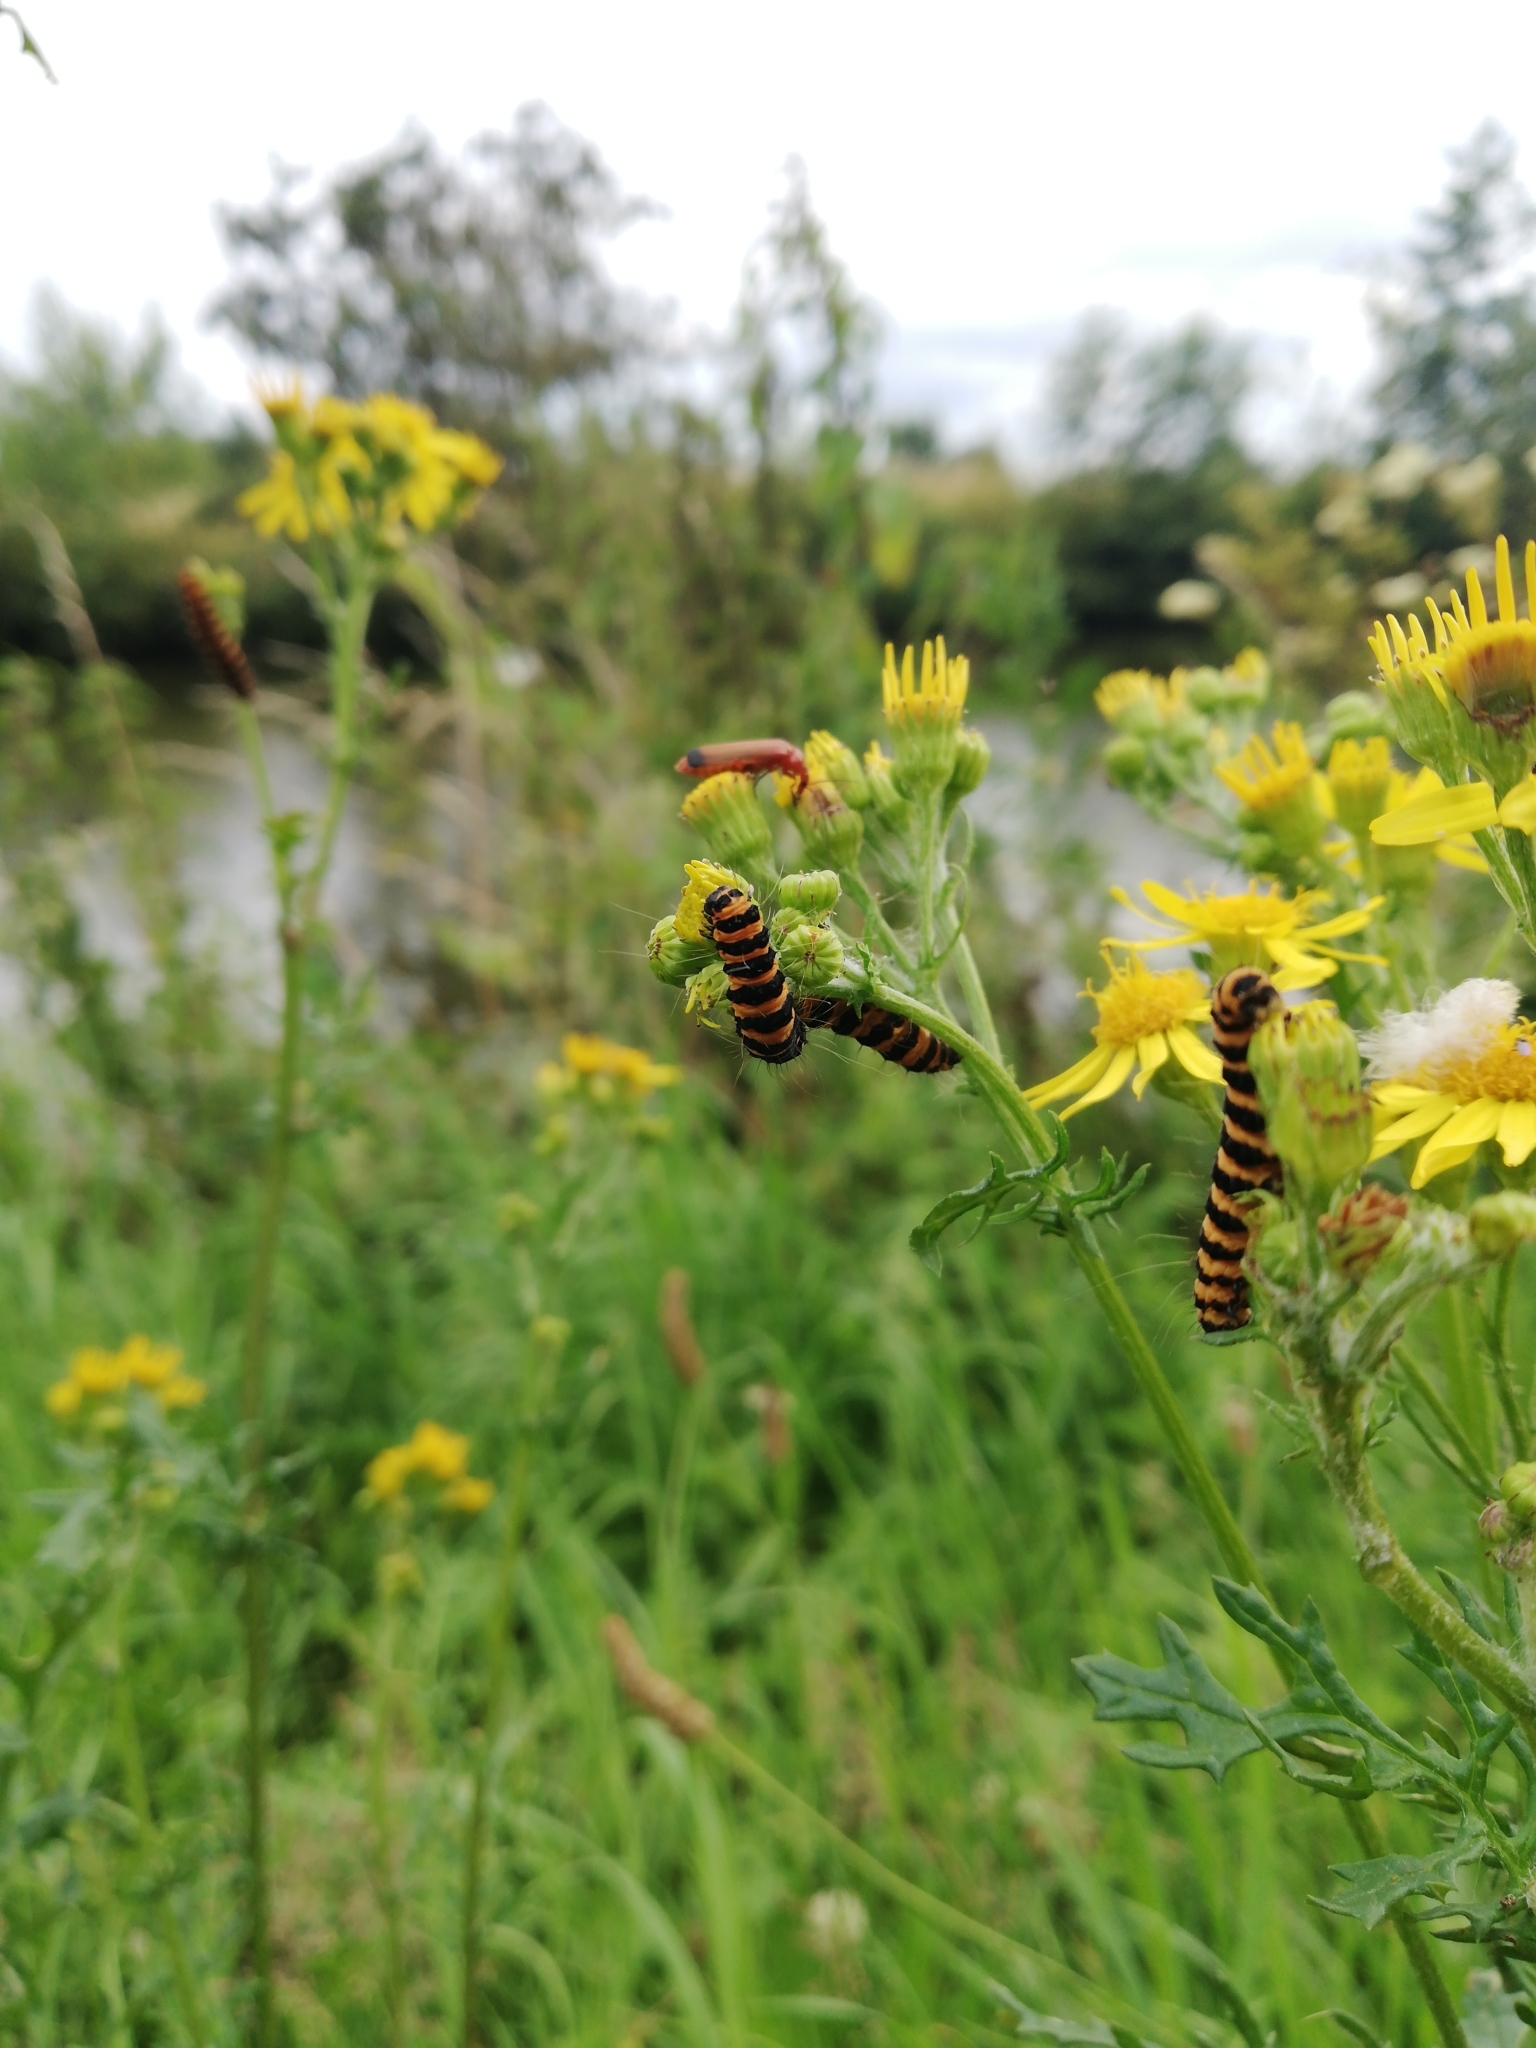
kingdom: Animalia
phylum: Arthropoda
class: Insecta
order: Lepidoptera
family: Erebidae
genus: Tyria
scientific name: Tyria jacobaeae
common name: Cinnabar
